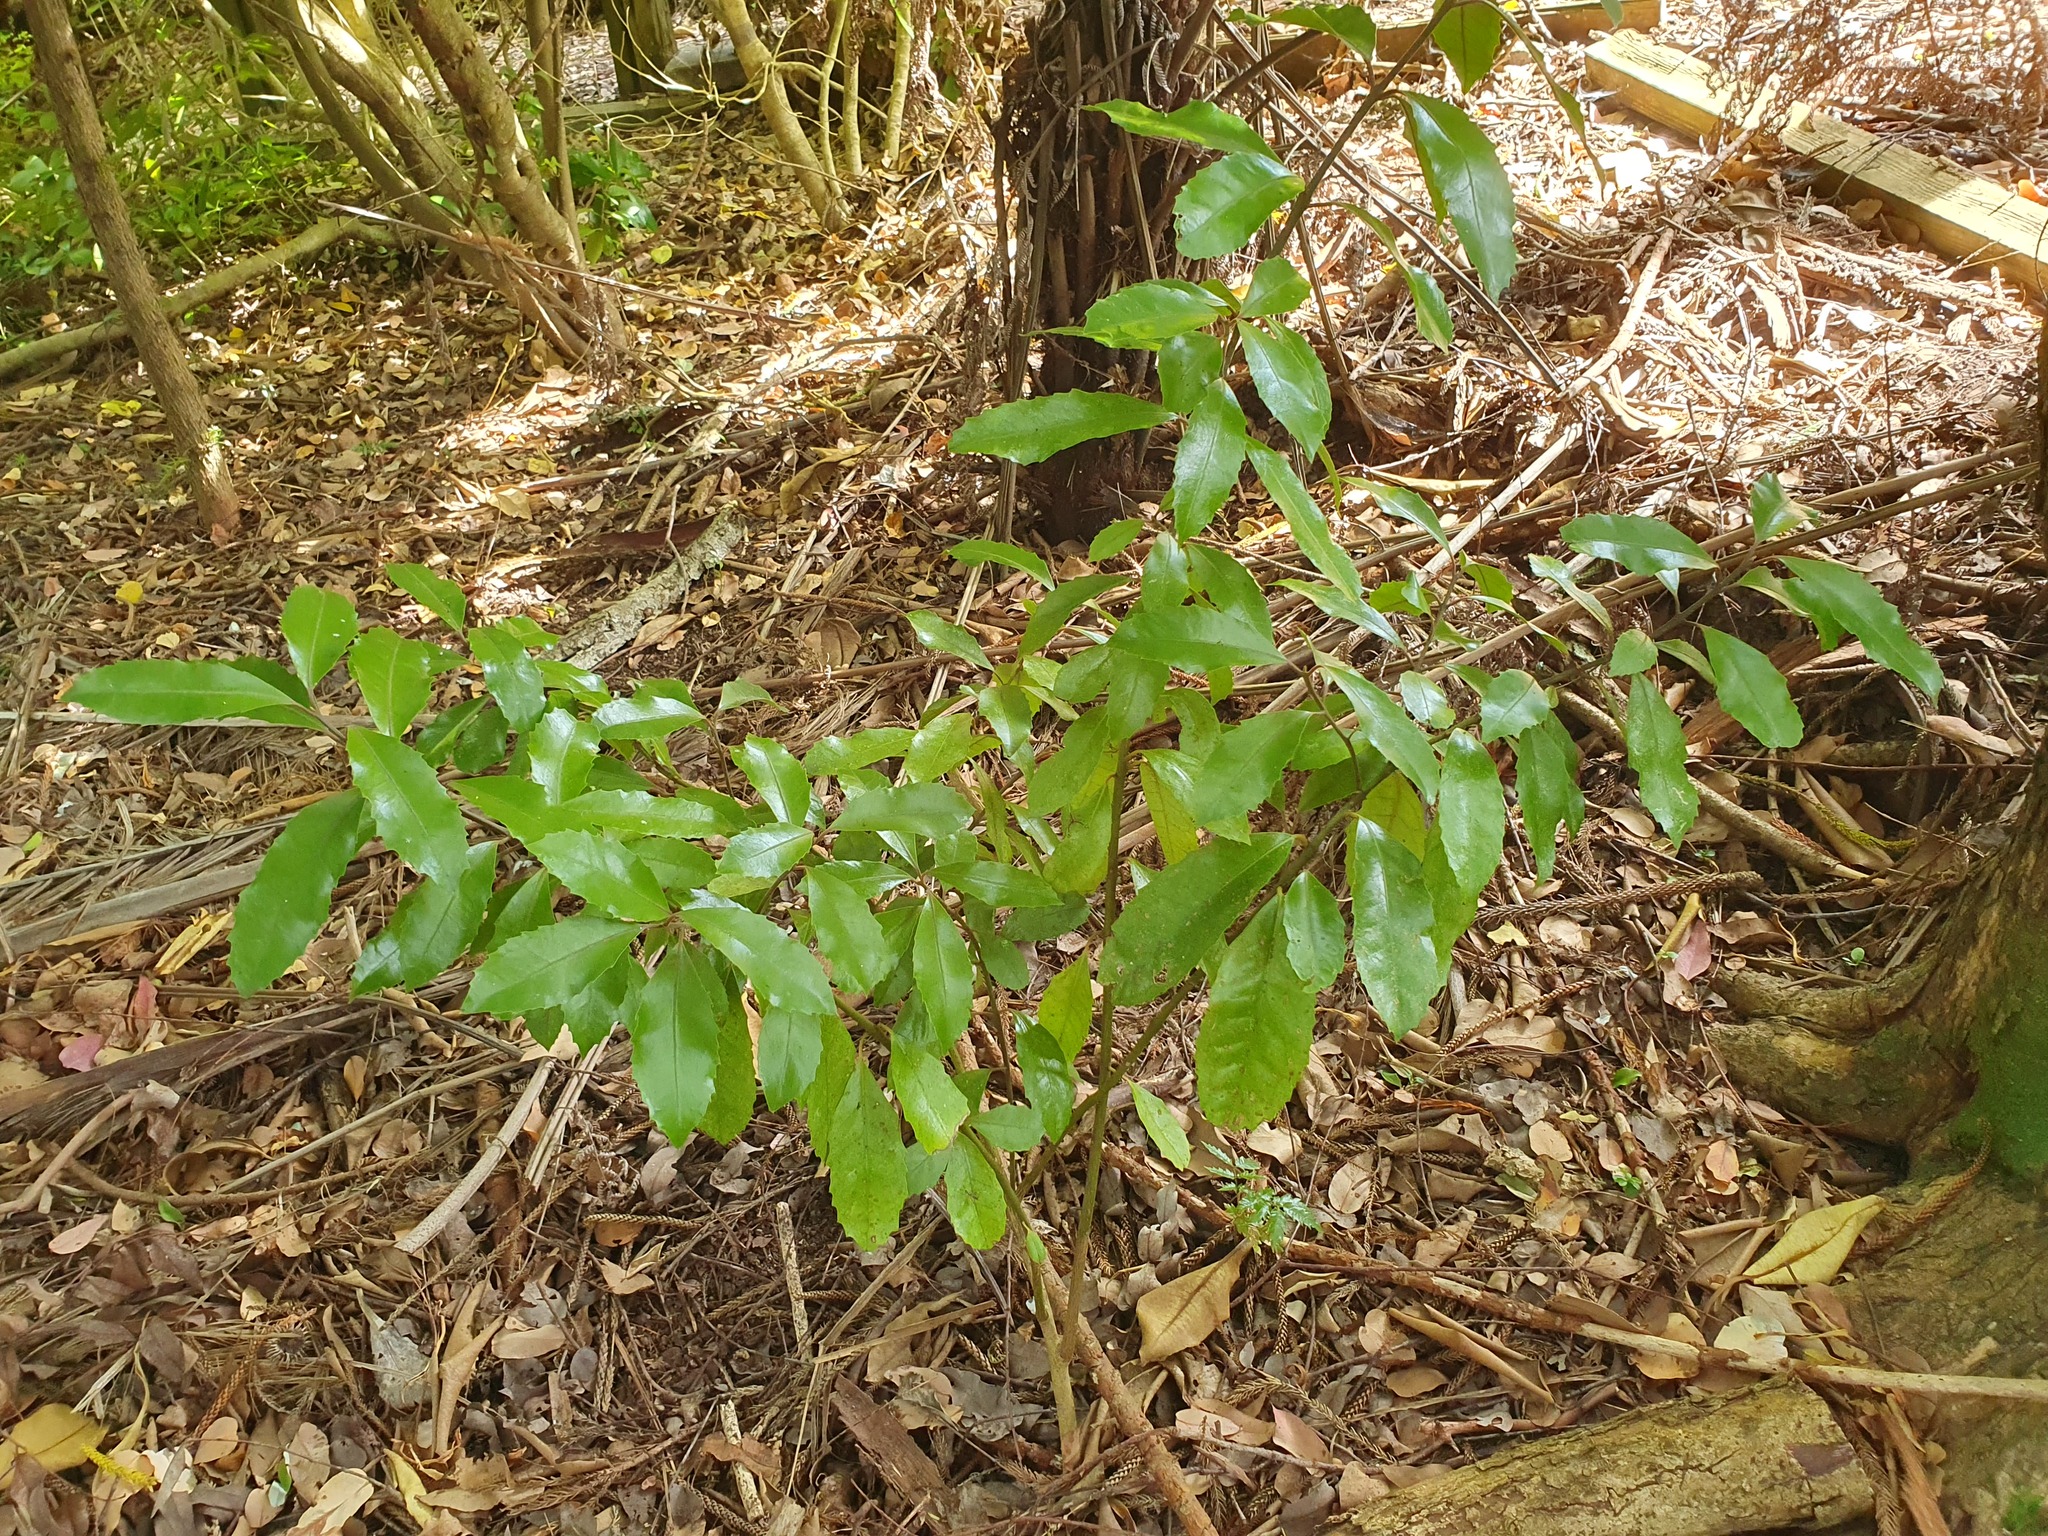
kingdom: Plantae
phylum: Tracheophyta
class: Magnoliopsida
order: Laurales
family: Monimiaceae
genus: Hedycarya
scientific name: Hedycarya arborea
